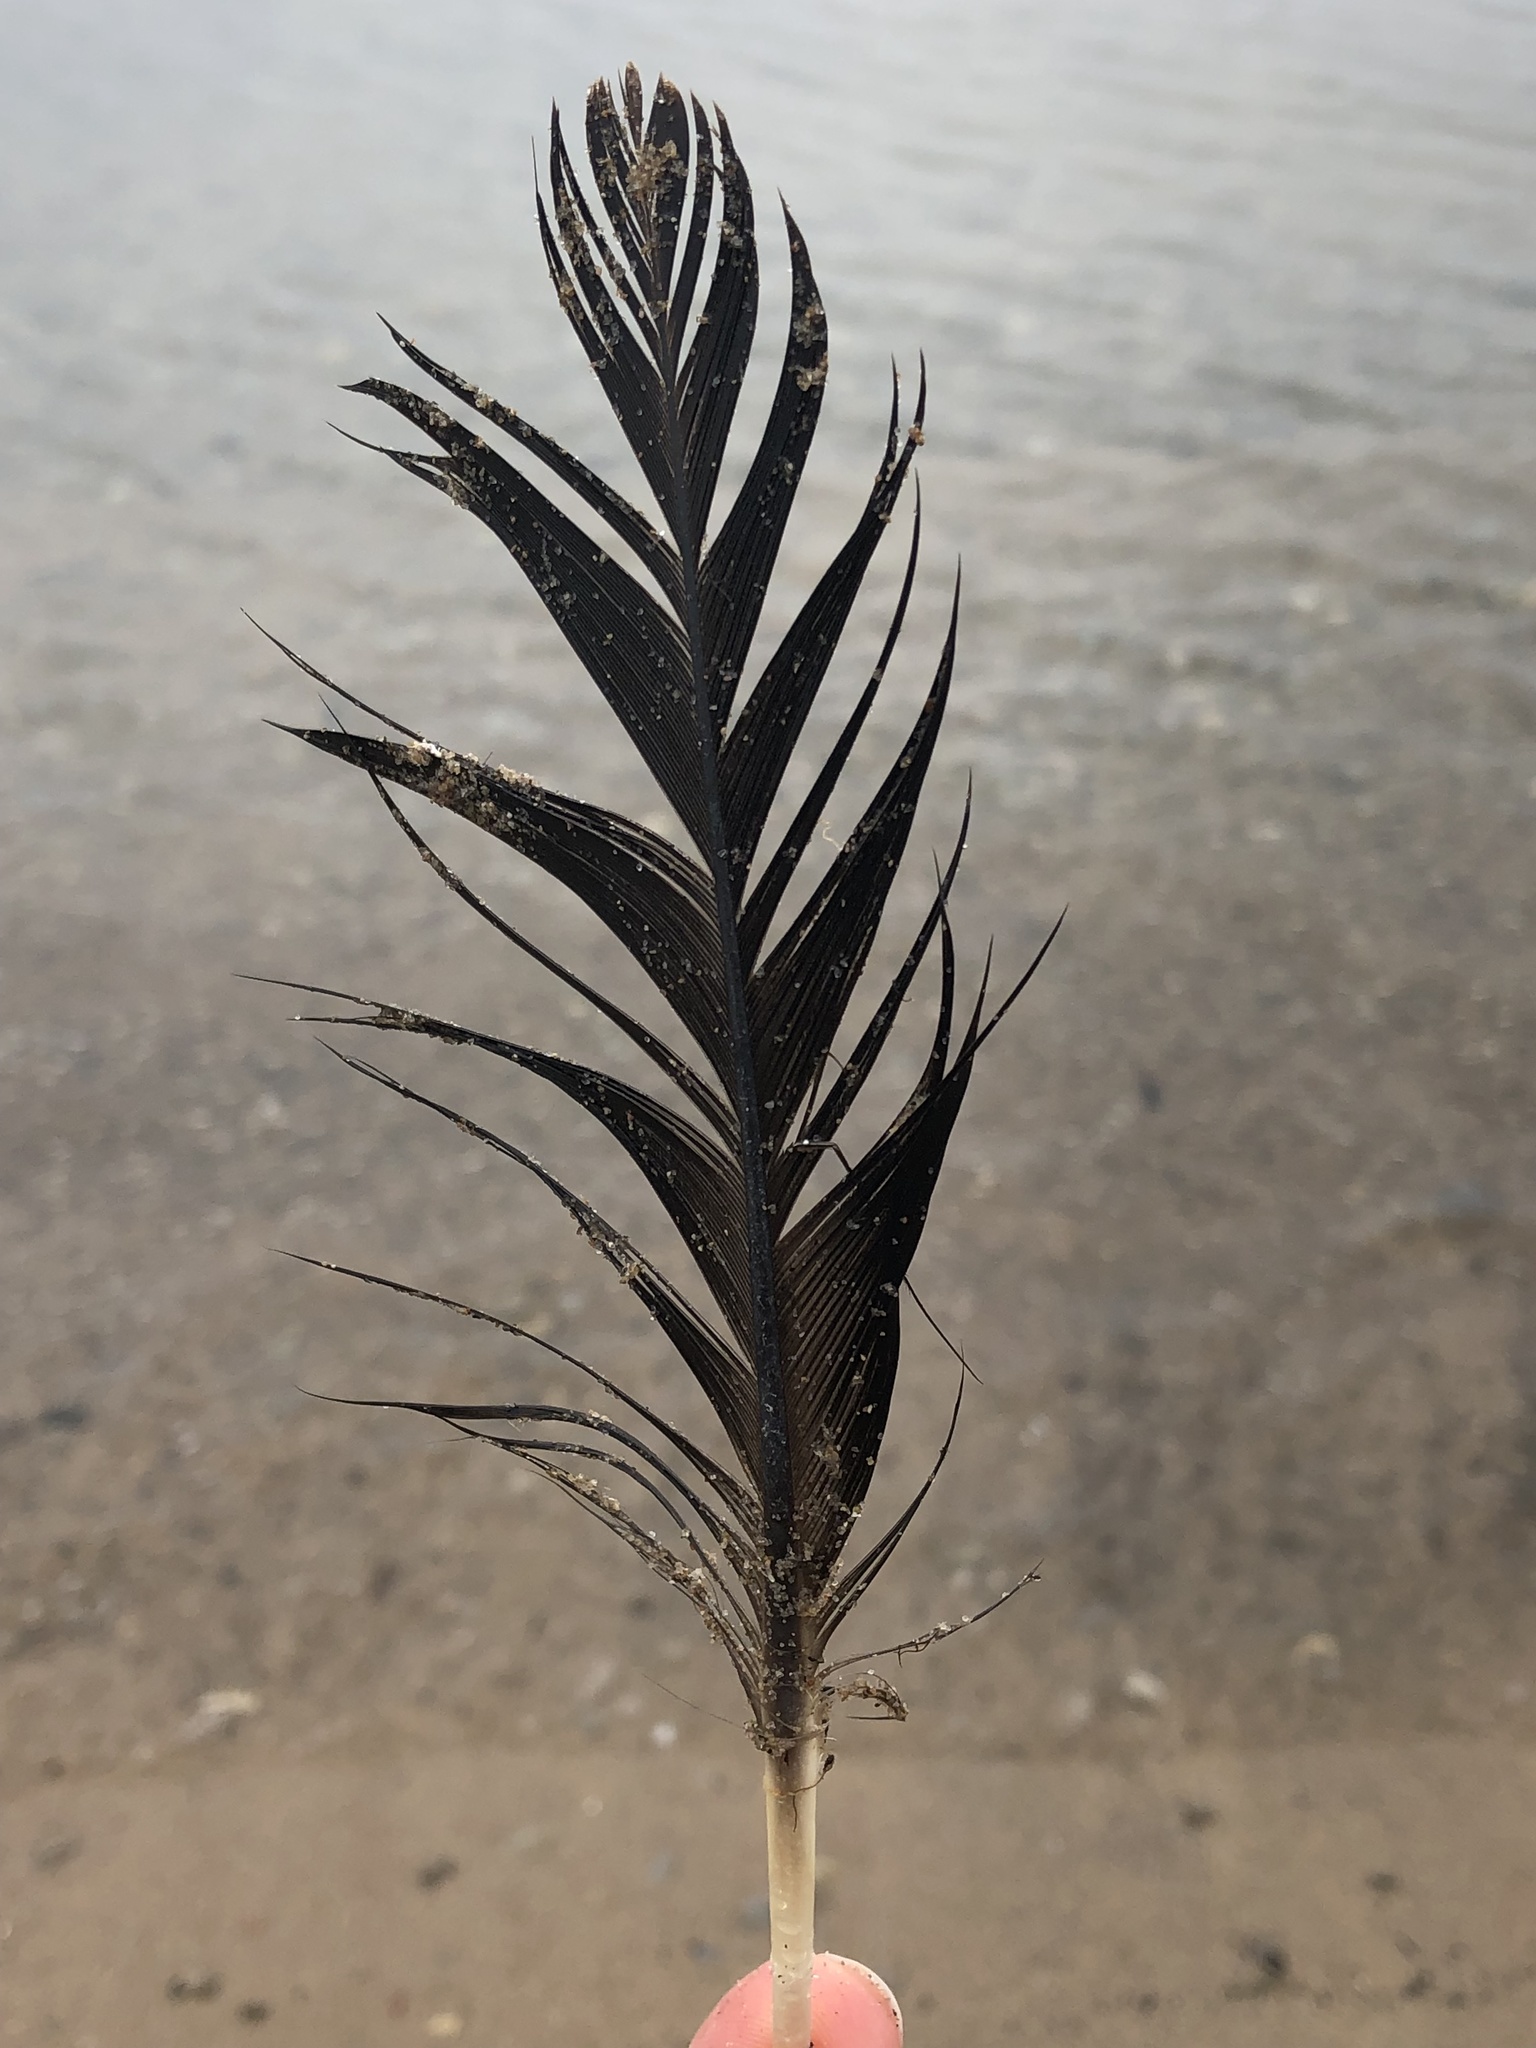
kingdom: Animalia
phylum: Chordata
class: Aves
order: Anseriformes
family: Anatidae
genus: Branta
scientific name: Branta canadensis
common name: Canada goose
